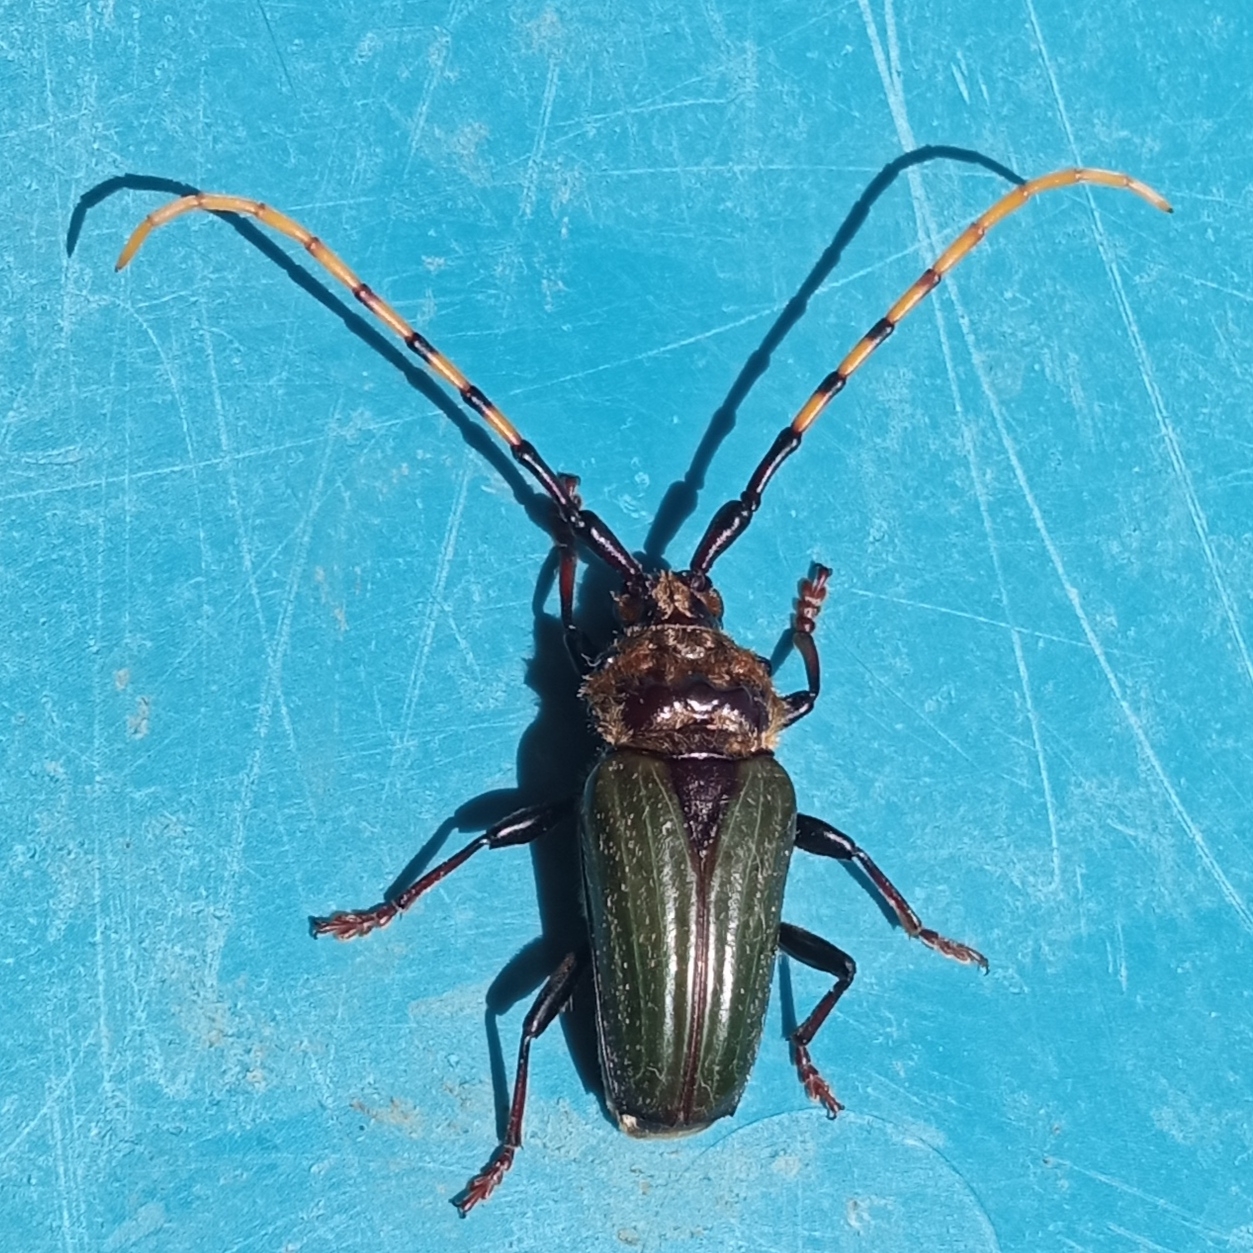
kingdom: Animalia
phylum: Arthropoda
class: Insecta
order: Coleoptera
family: Cerambycidae
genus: Retrachydes
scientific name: Retrachydes thoracicus
